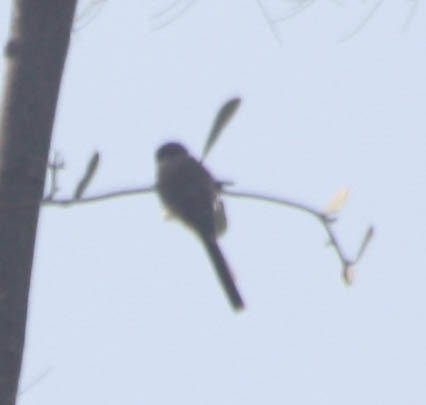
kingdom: Animalia
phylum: Chordata
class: Aves
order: Passeriformes
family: Aegithalidae
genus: Psaltriparus
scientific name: Psaltriparus minimus
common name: American bushtit
